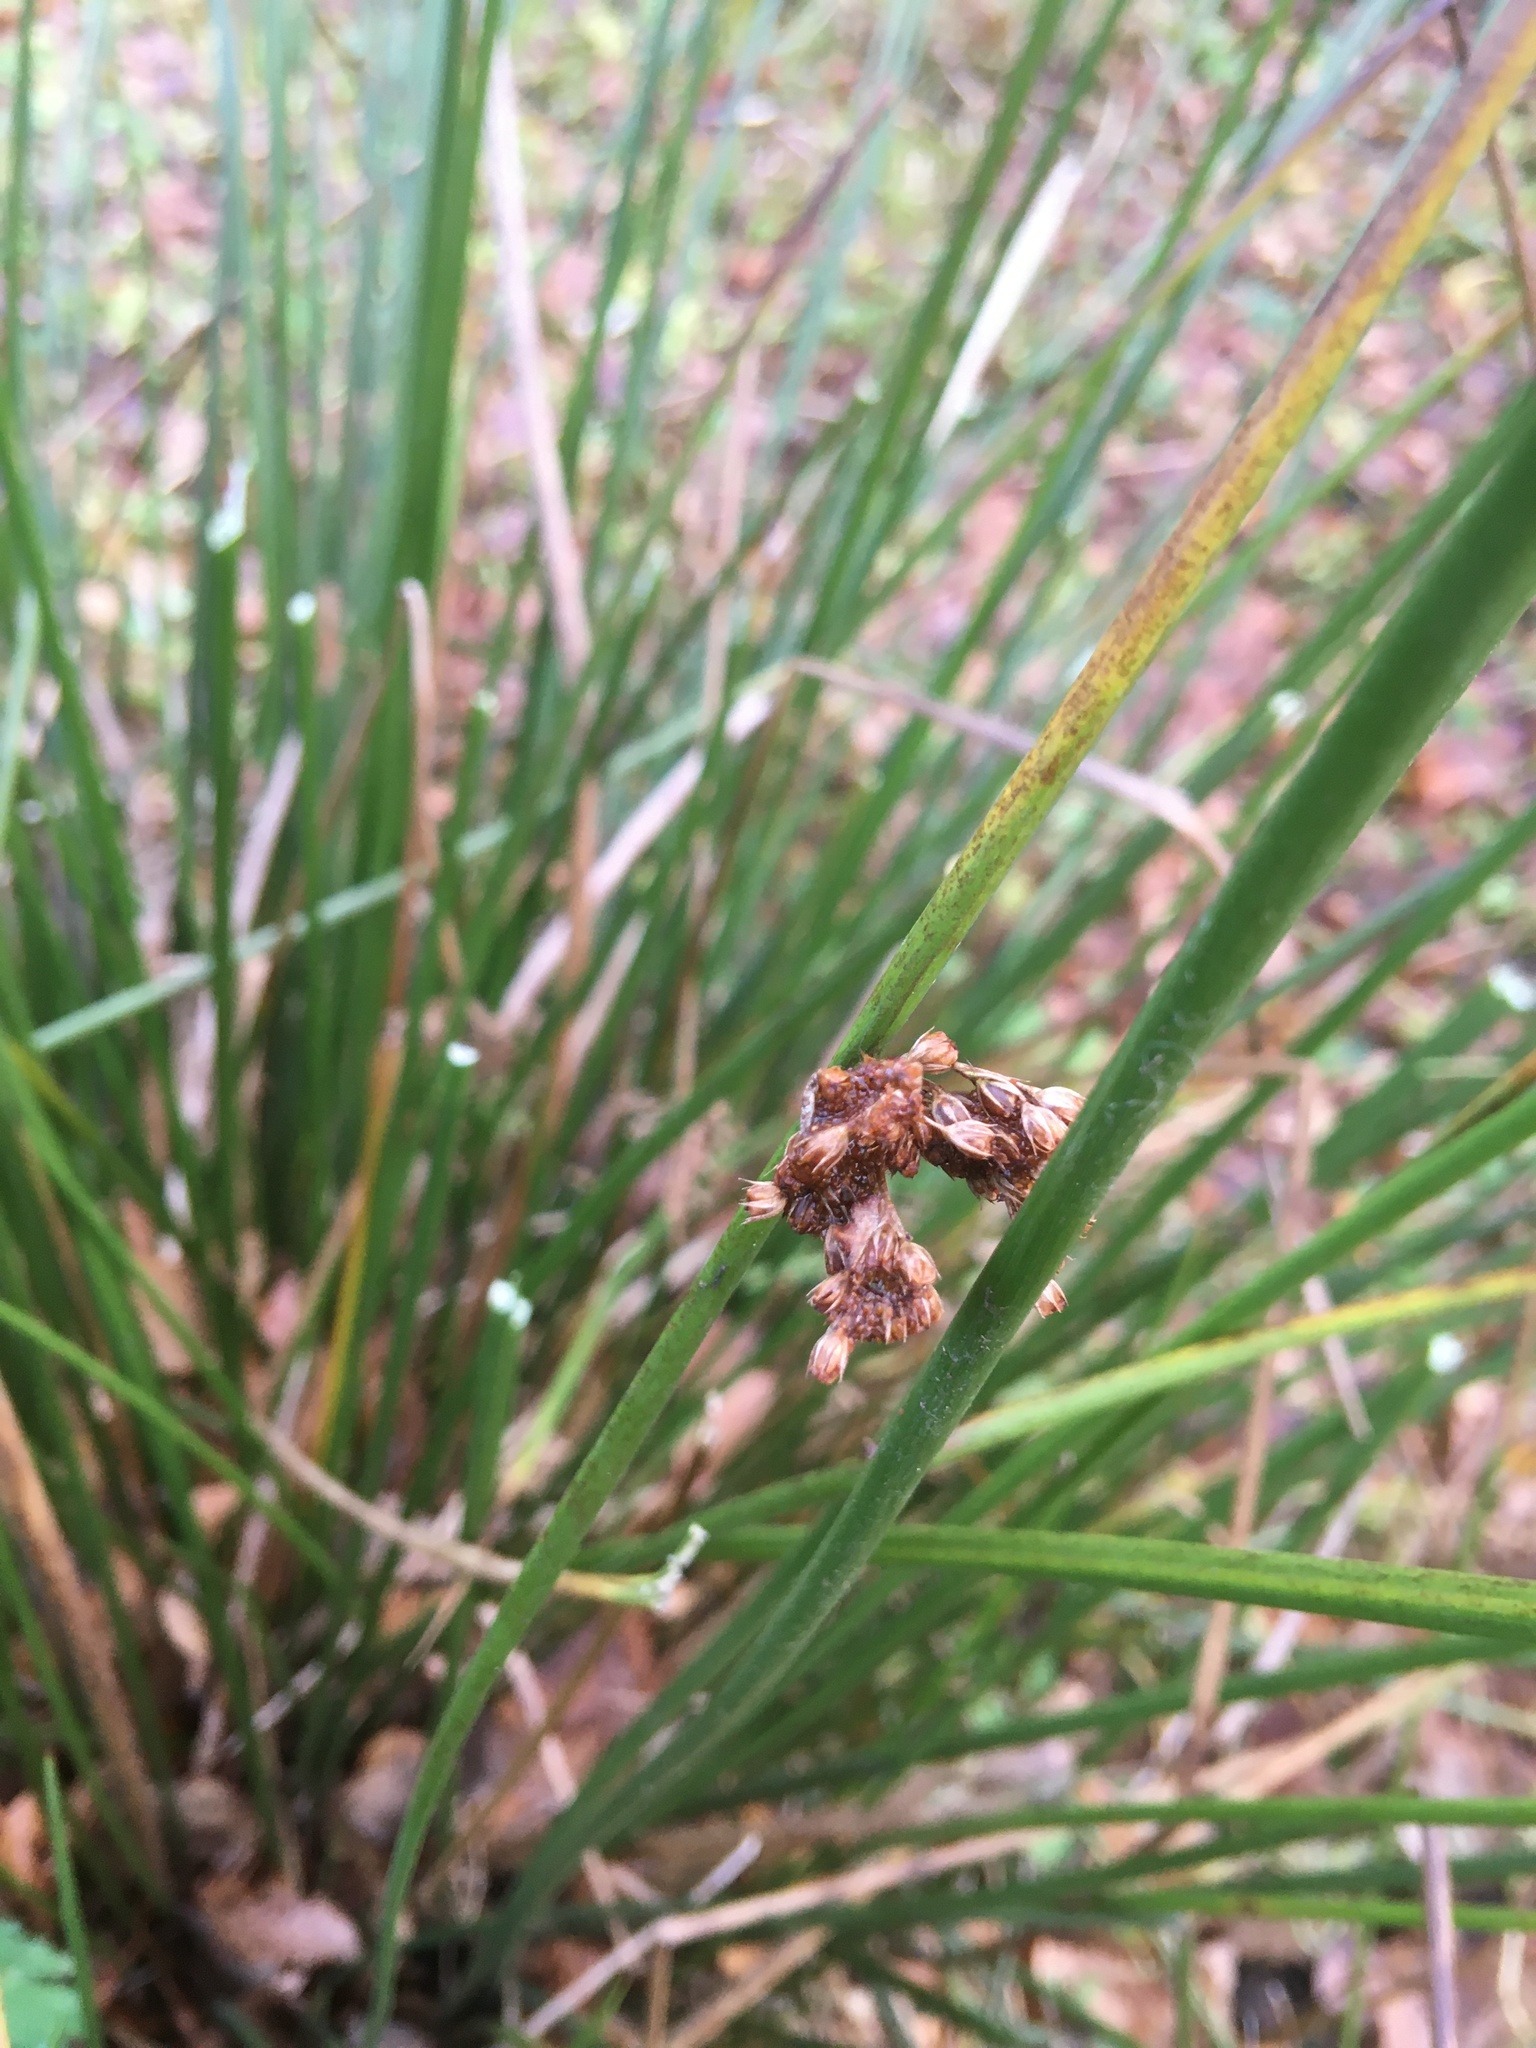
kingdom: Plantae
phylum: Tracheophyta
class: Liliopsida
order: Poales
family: Juncaceae
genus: Juncus
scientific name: Juncus effusus
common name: Soft rush
